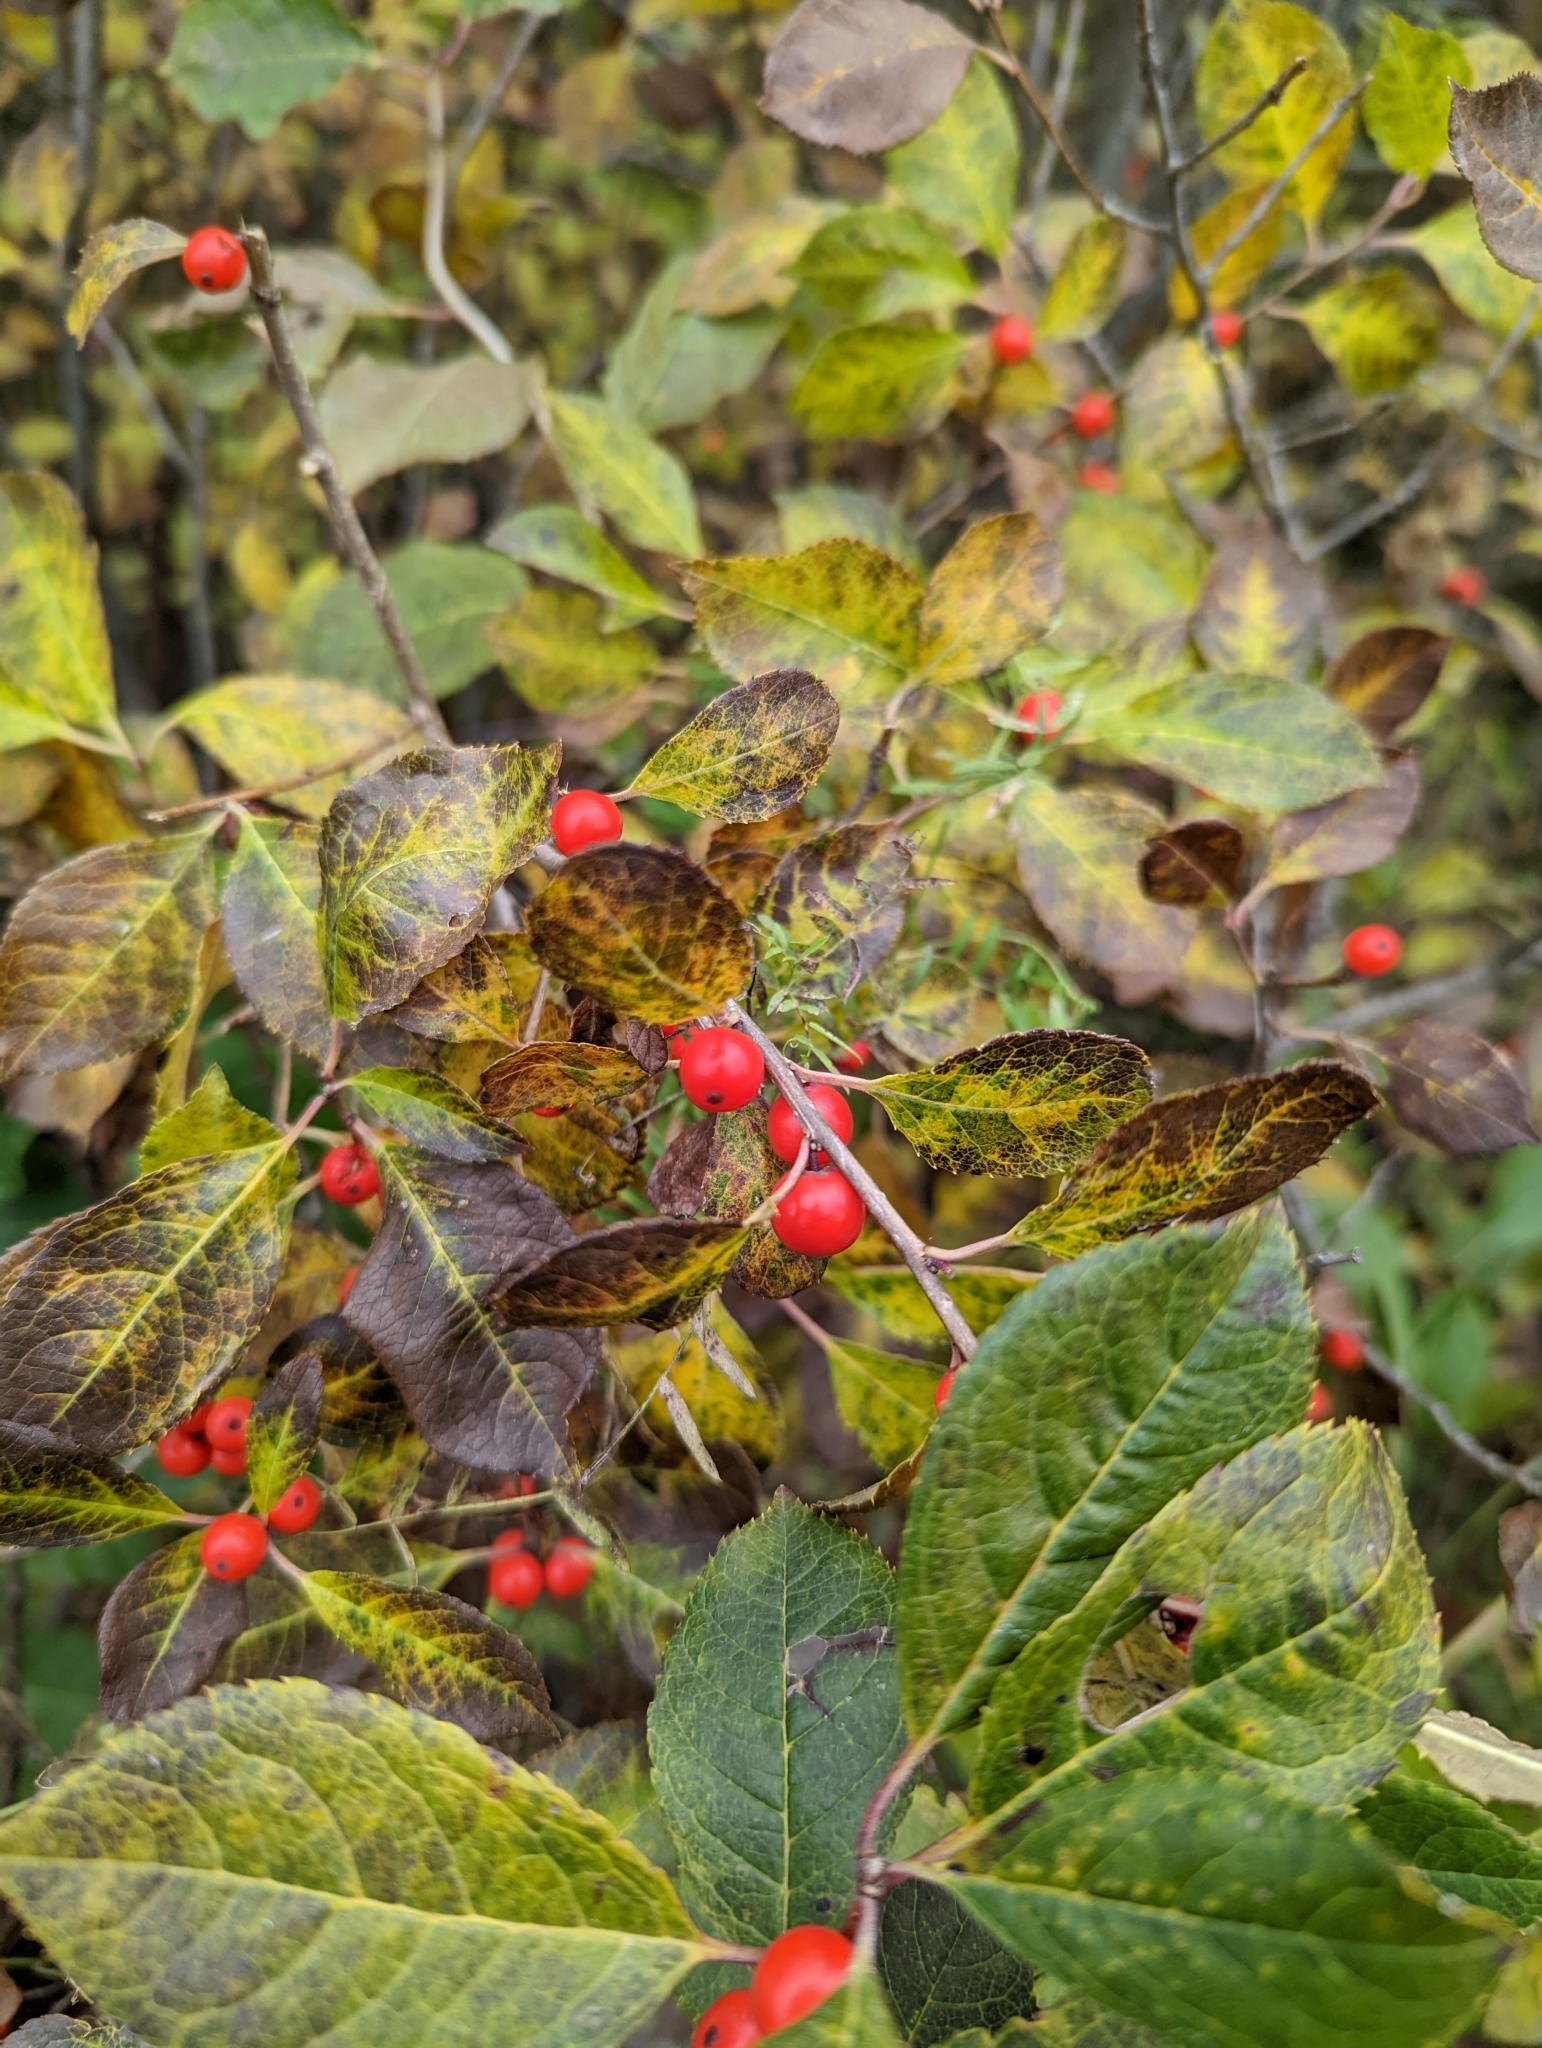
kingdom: Plantae
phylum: Tracheophyta
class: Magnoliopsida
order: Aquifoliales
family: Aquifoliaceae
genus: Ilex
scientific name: Ilex verticillata
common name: Virginia winterberry
